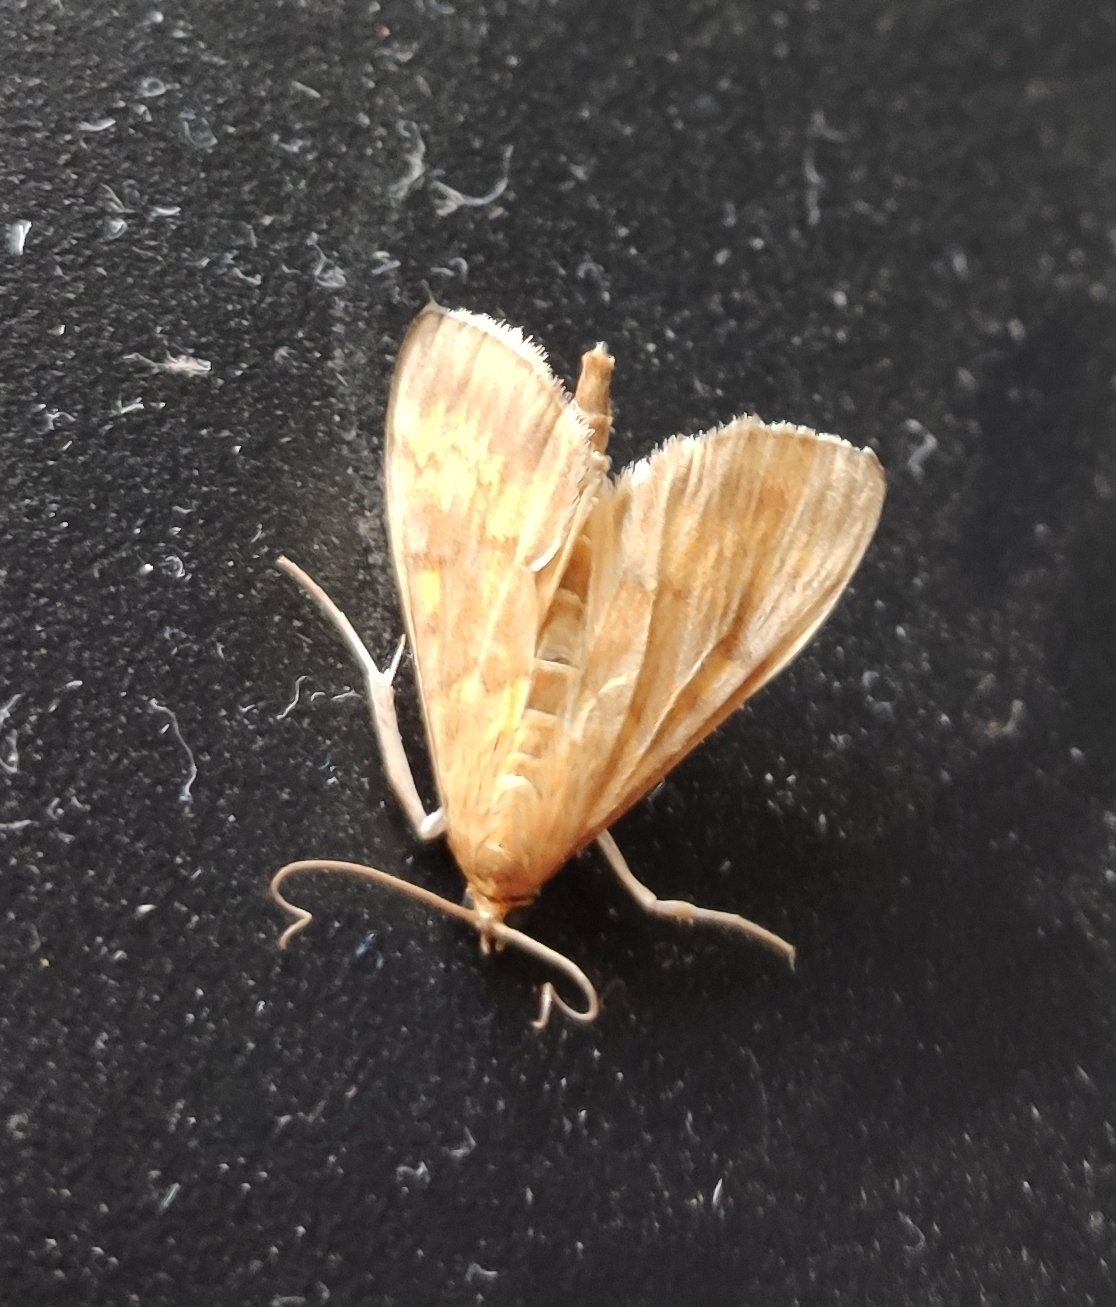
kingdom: Animalia
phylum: Arthropoda
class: Insecta
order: Lepidoptera
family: Crambidae
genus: Ostrinia
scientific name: Ostrinia nubilalis
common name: European corn borer
